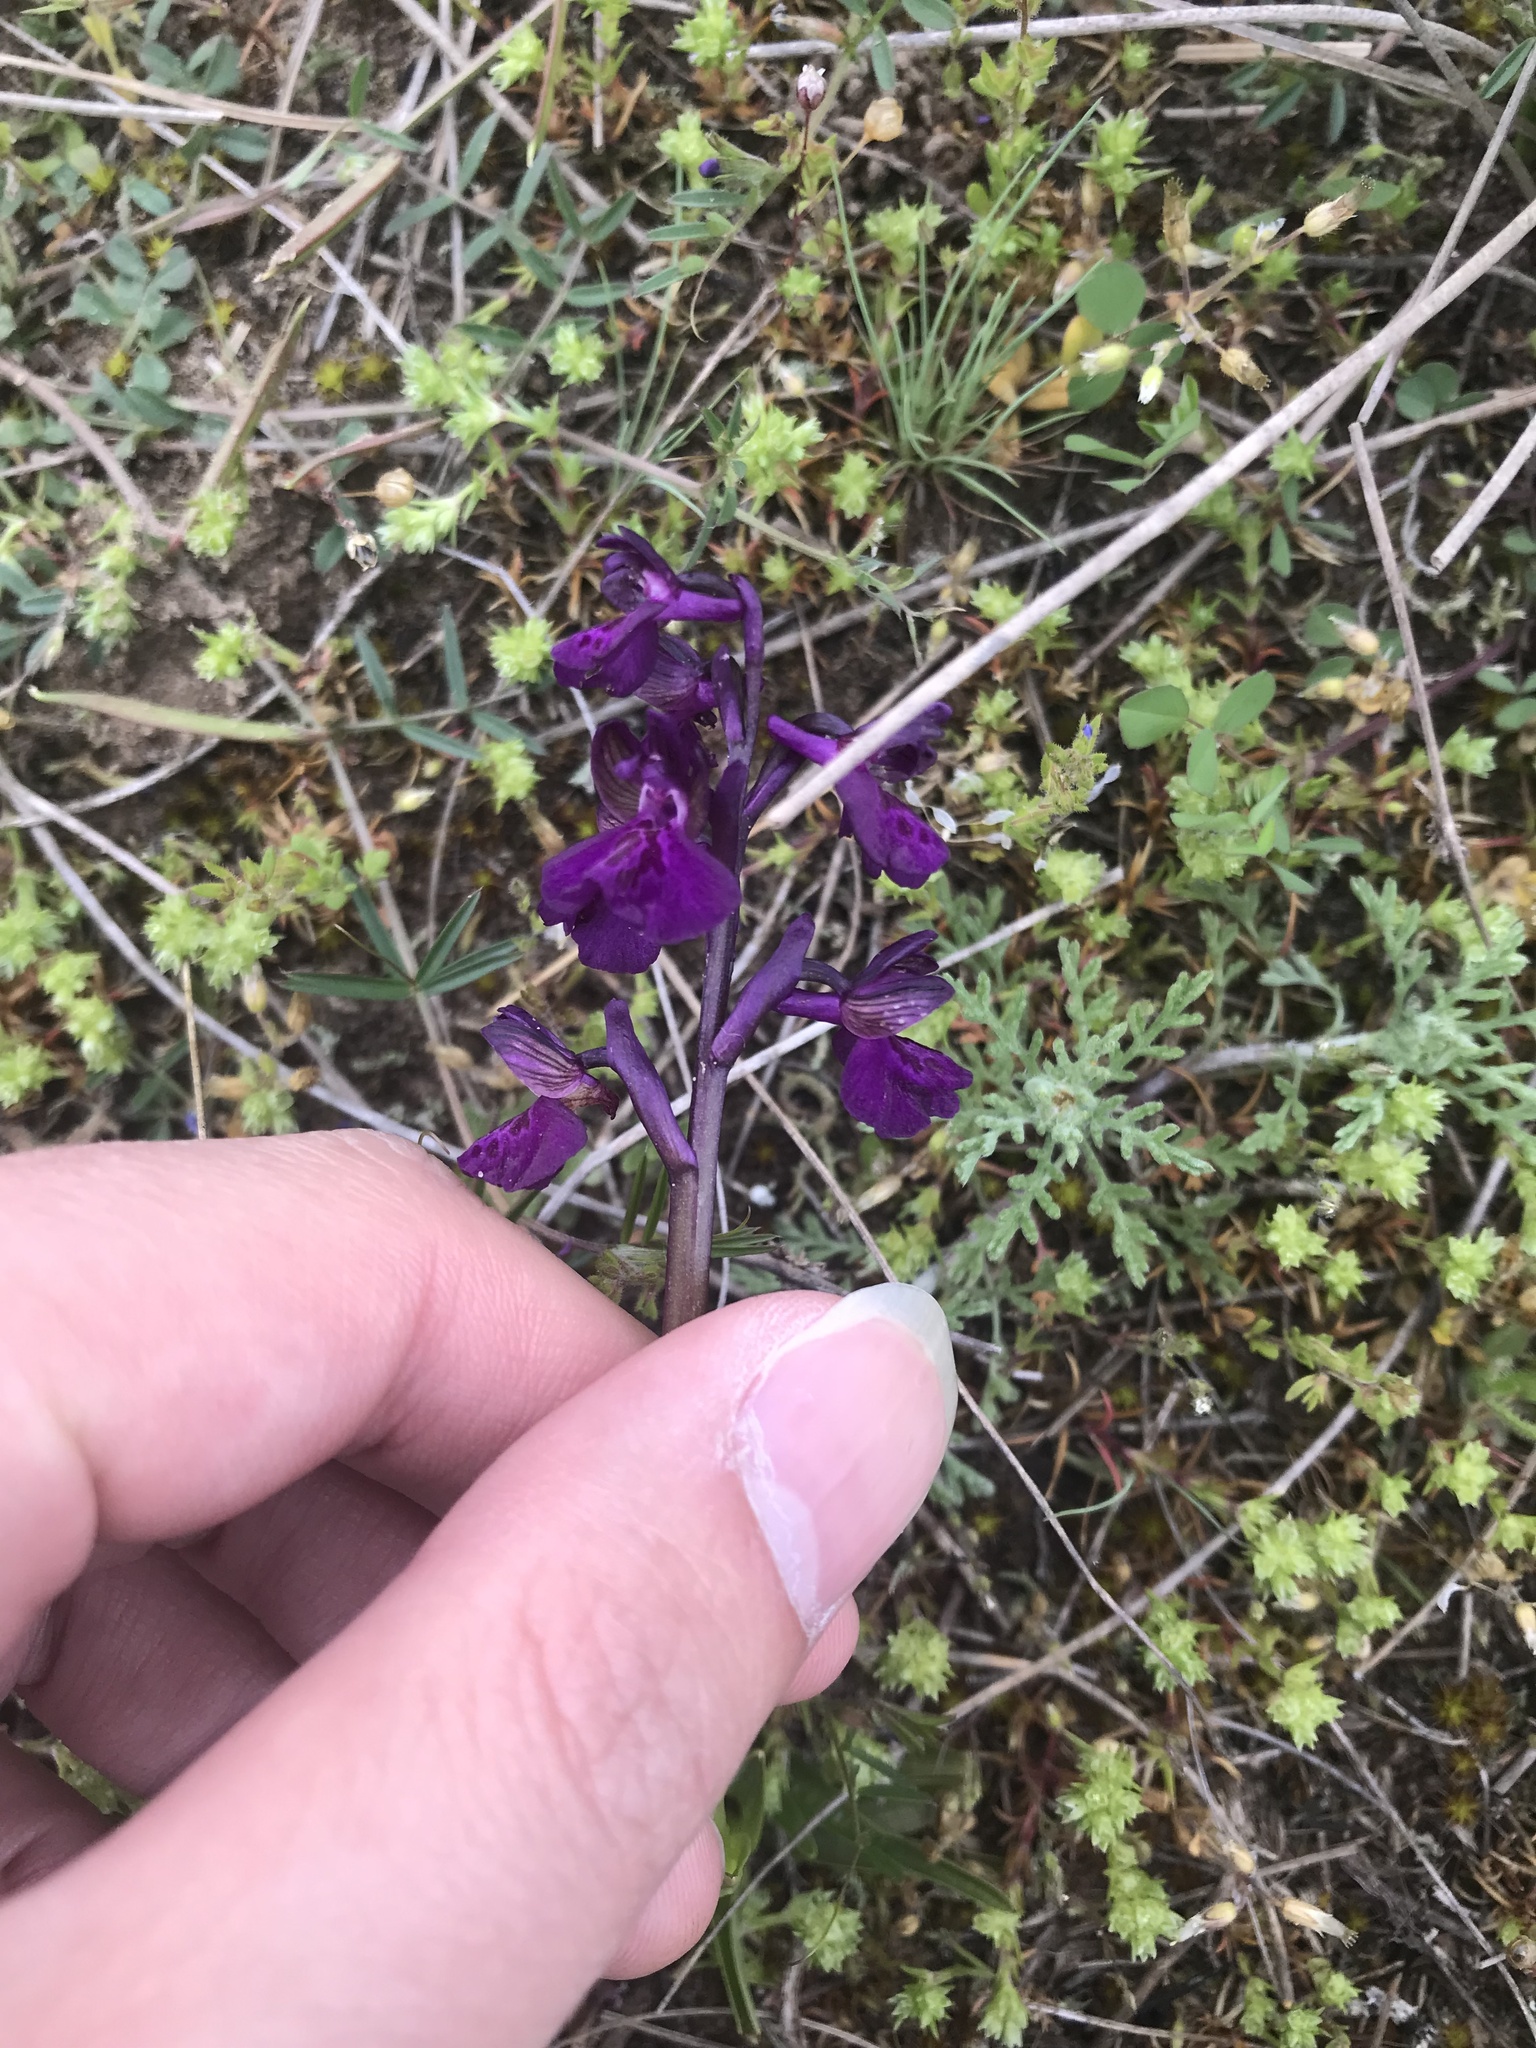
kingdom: Plantae
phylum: Tracheophyta
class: Liliopsida
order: Asparagales
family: Orchidaceae
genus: Anacamptis
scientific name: Anacamptis morio
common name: Green-winged orchid
